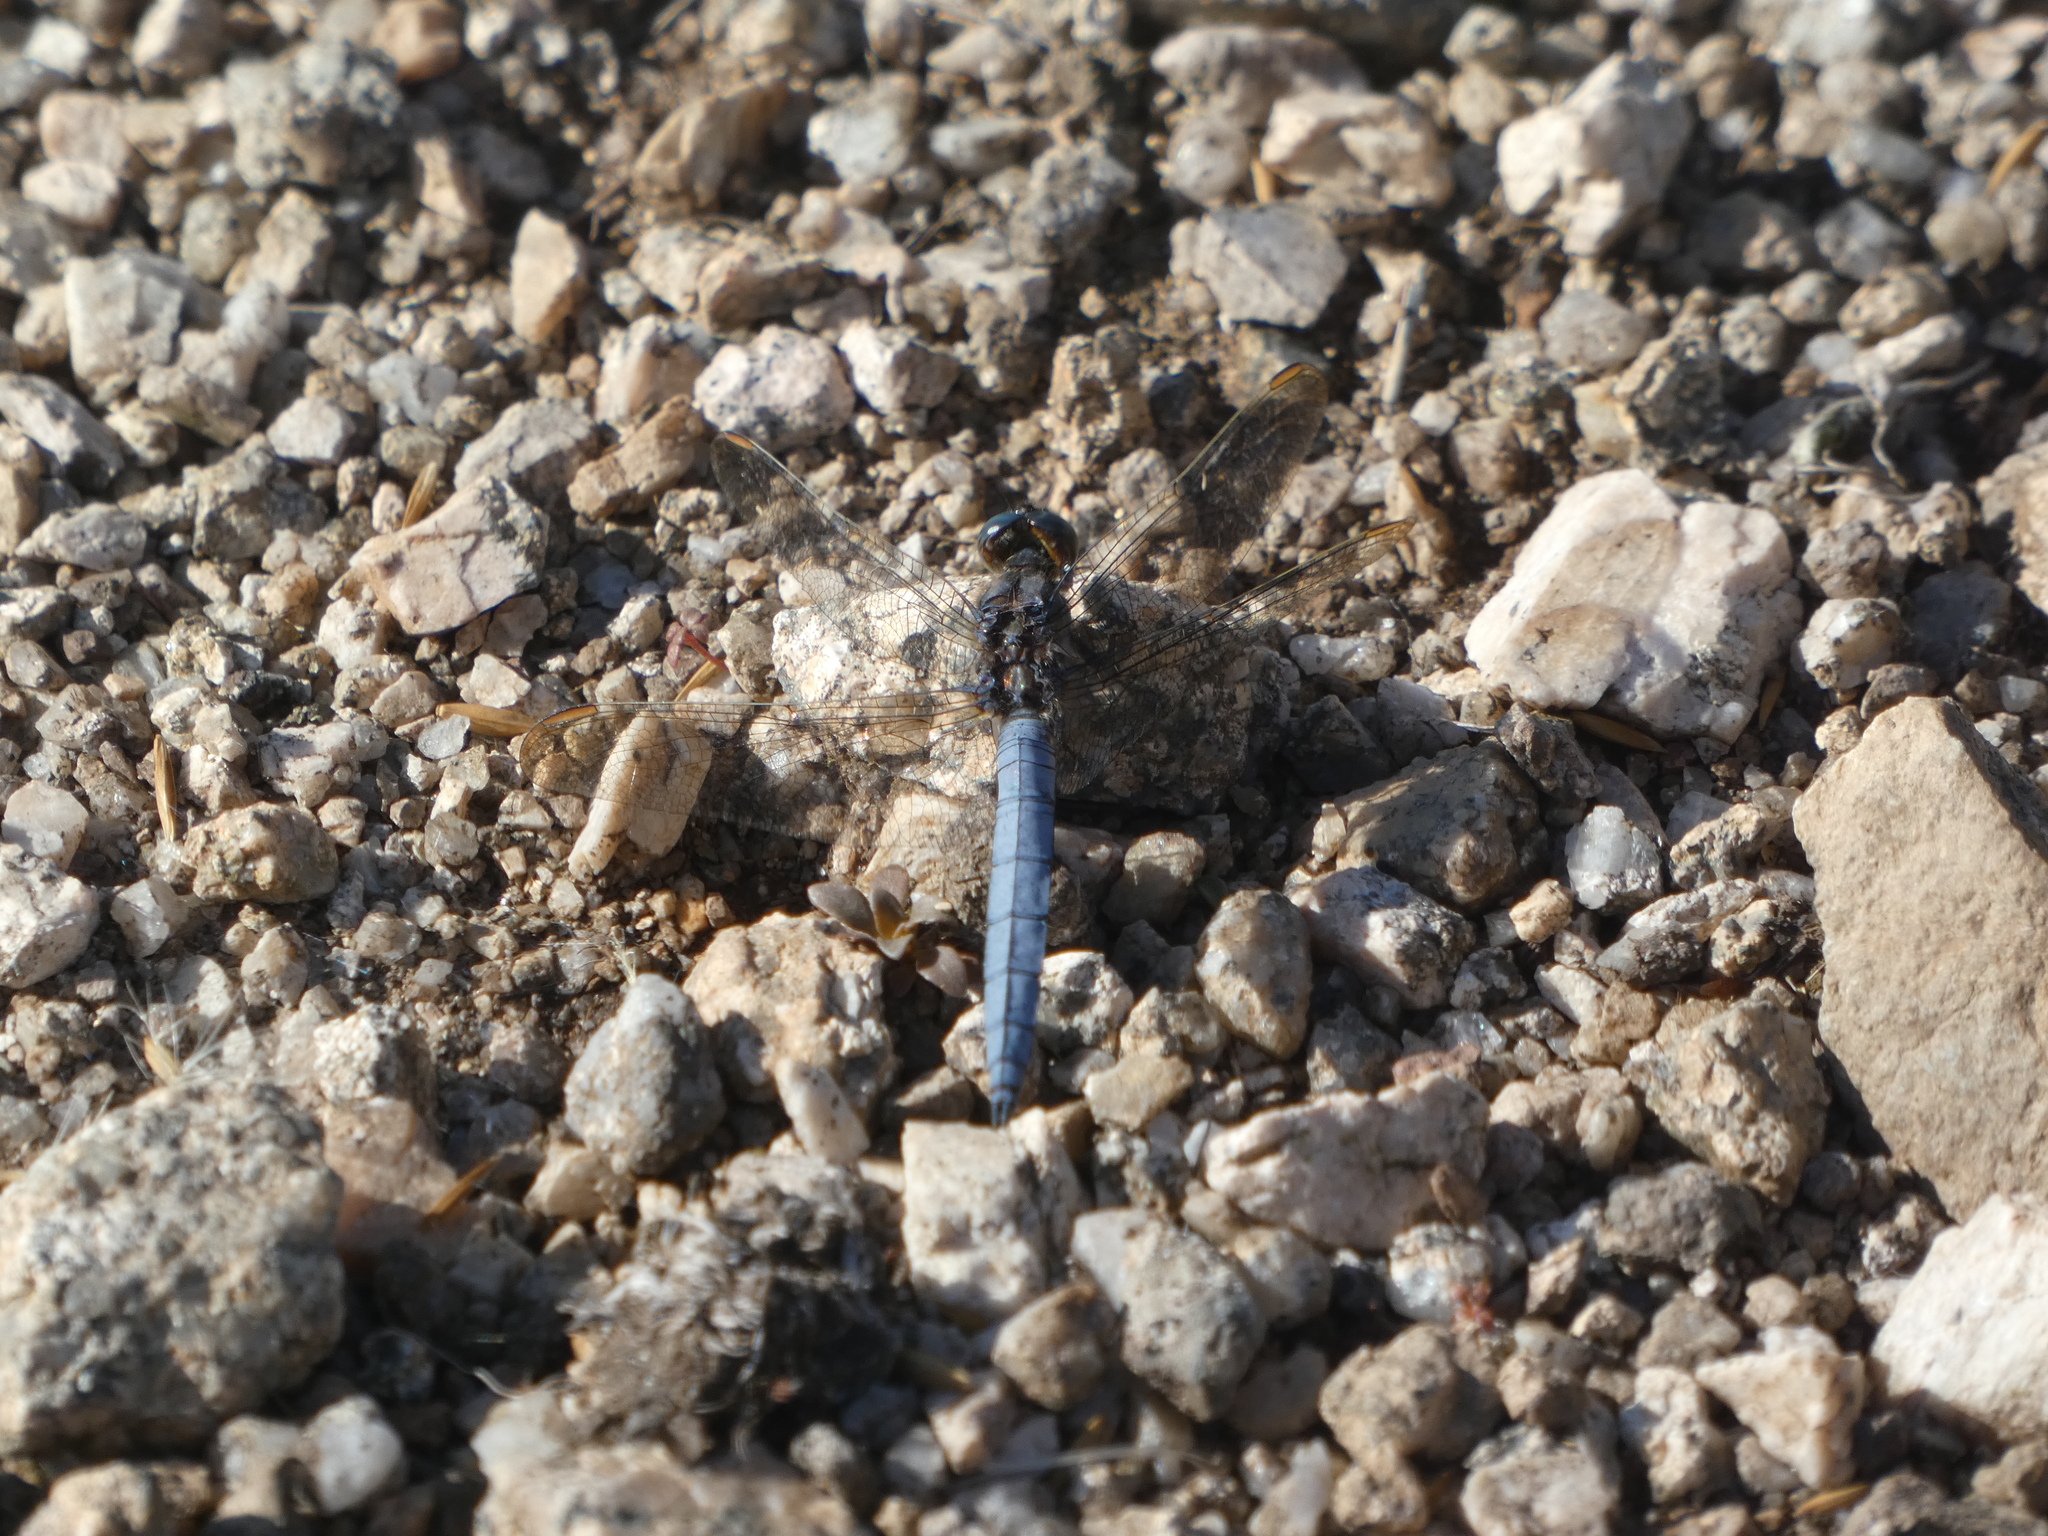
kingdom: Animalia
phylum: Arthropoda
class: Insecta
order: Odonata
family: Libellulidae
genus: Orthetrum
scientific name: Orthetrum coerulescens
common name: Keeled skimmer
